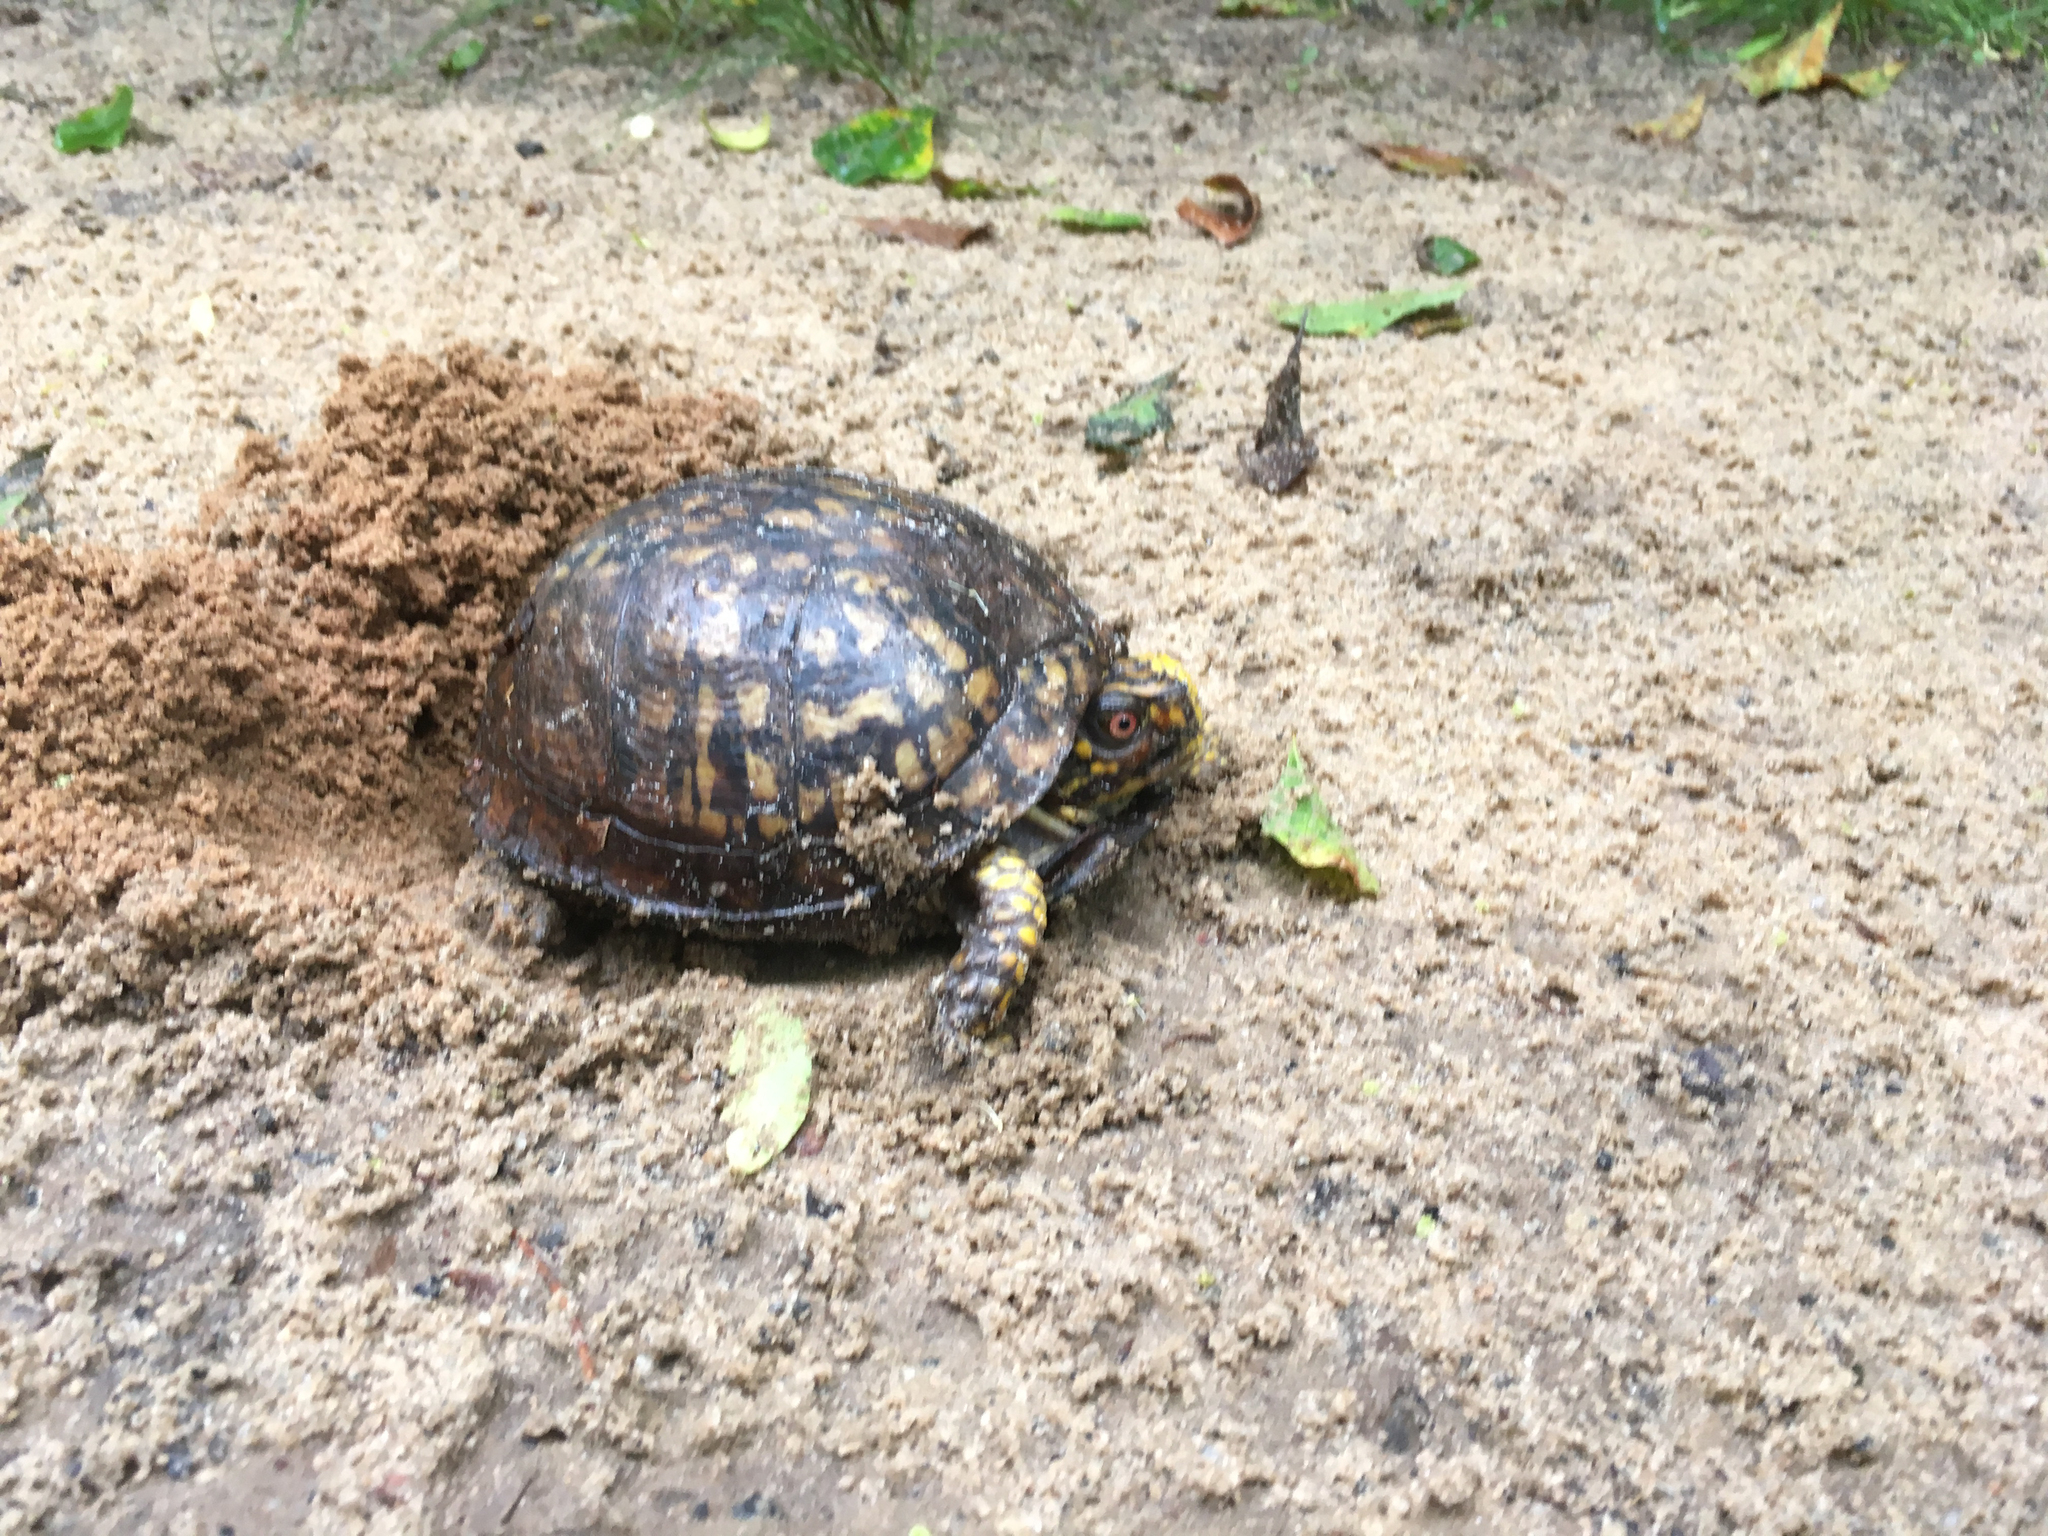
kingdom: Animalia
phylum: Chordata
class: Testudines
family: Emydidae
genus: Terrapene
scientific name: Terrapene carolina
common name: Common box turtle
